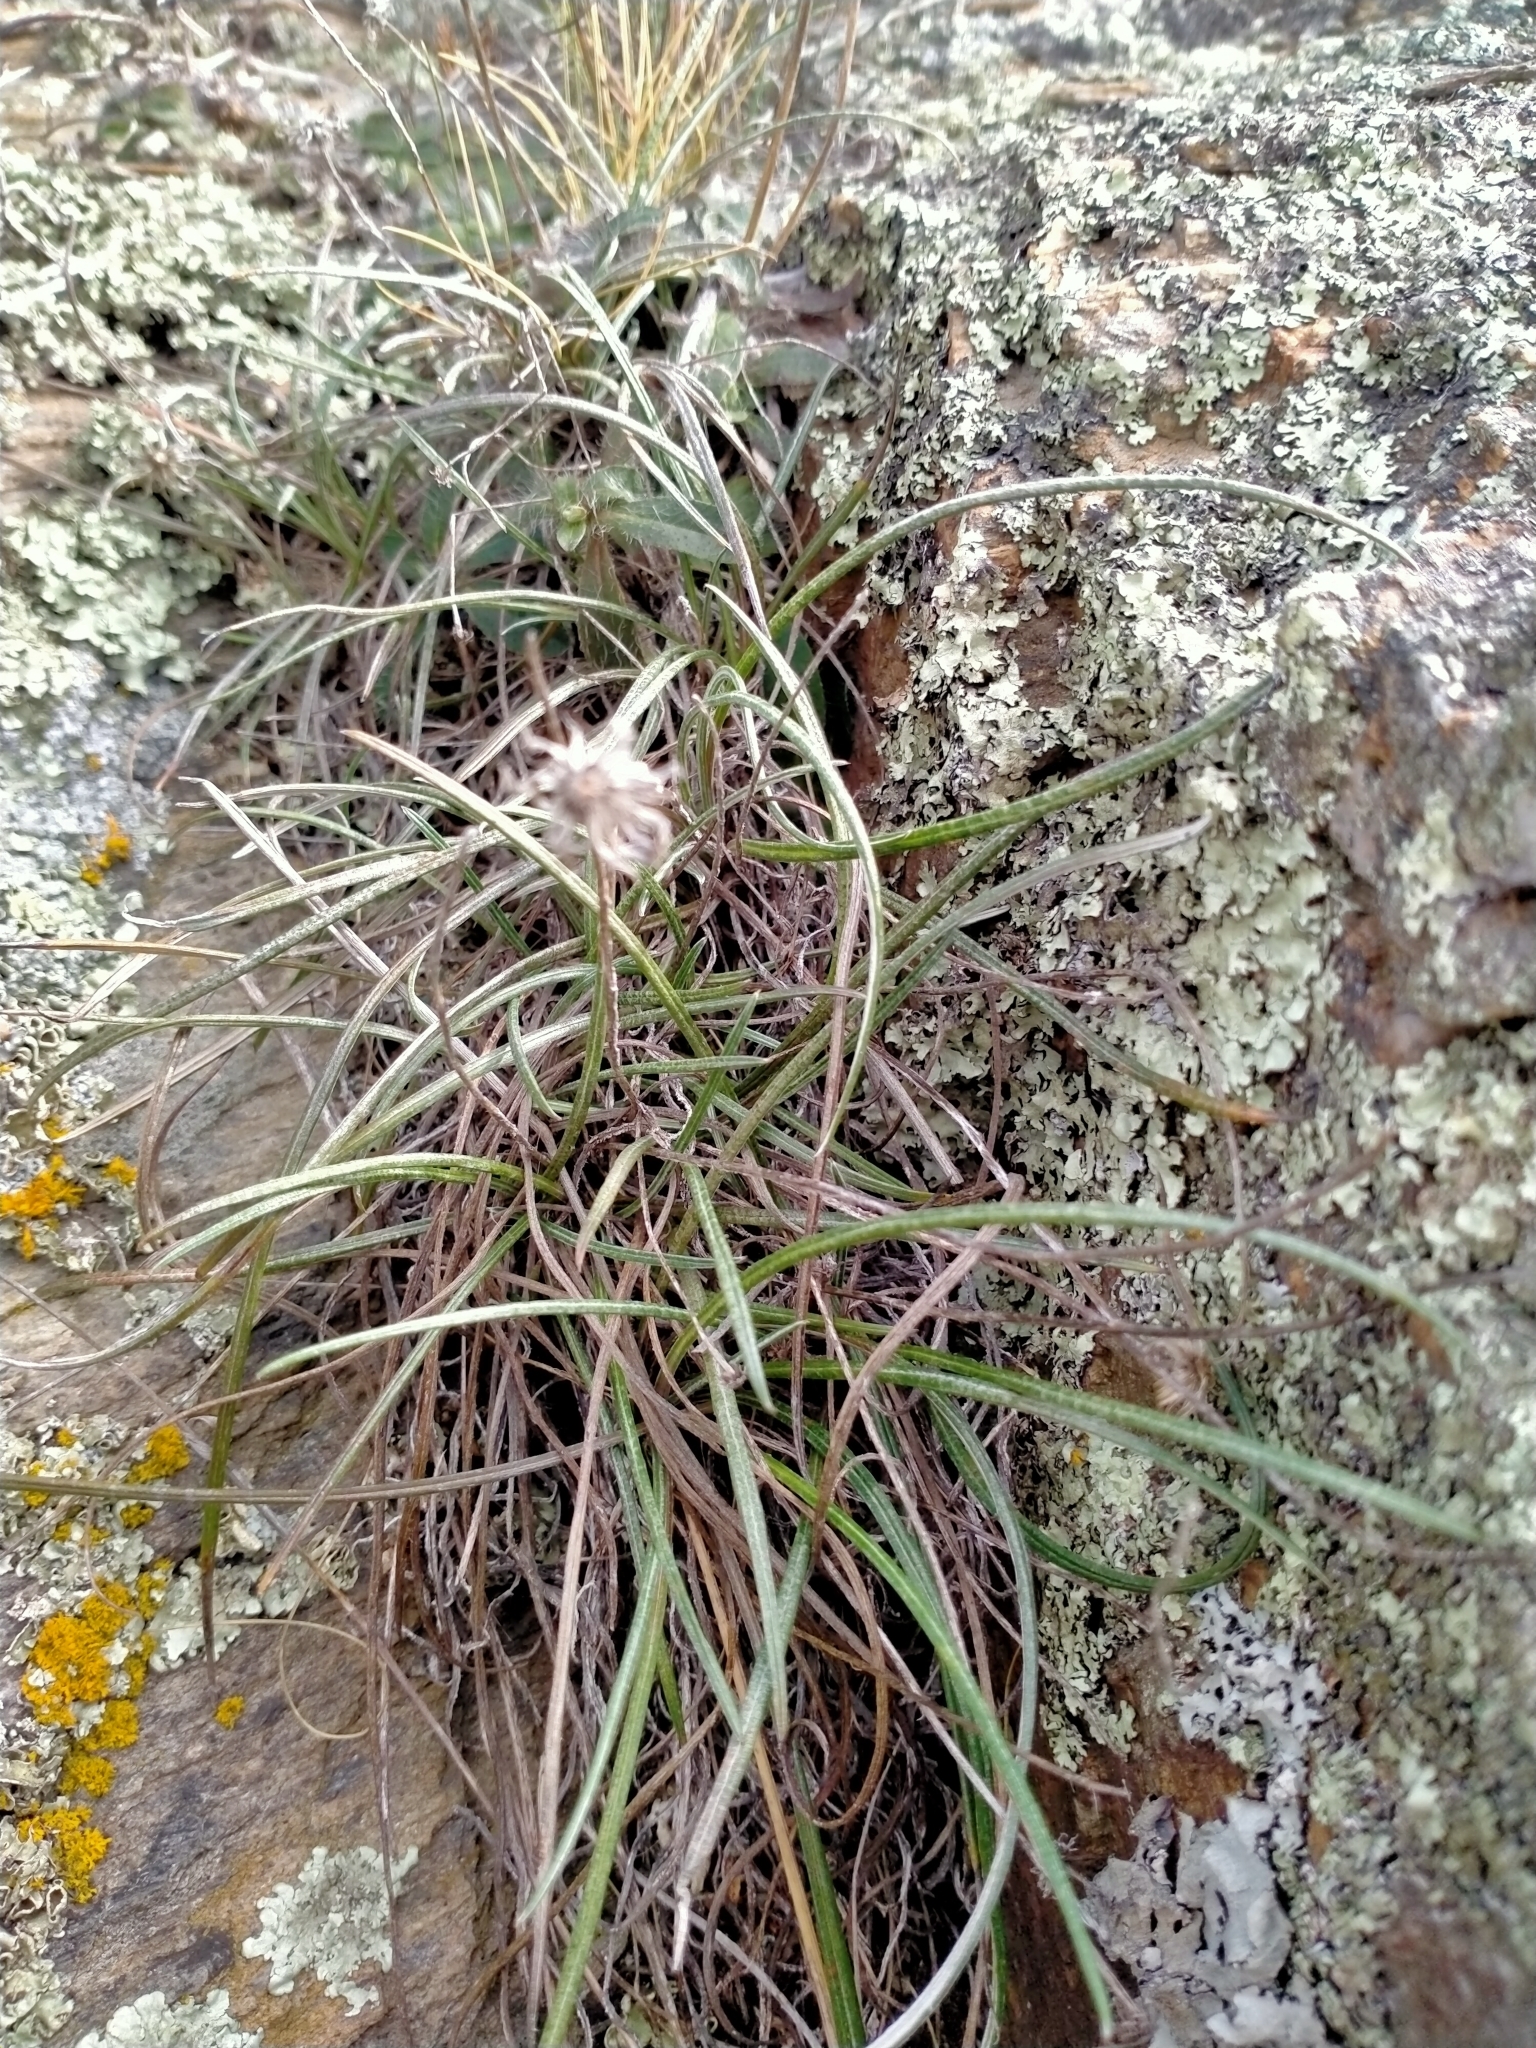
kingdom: Plantae
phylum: Tracheophyta
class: Magnoliopsida
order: Asterales
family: Asteraceae
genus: Celmisia
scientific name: Celmisia gracilenta
